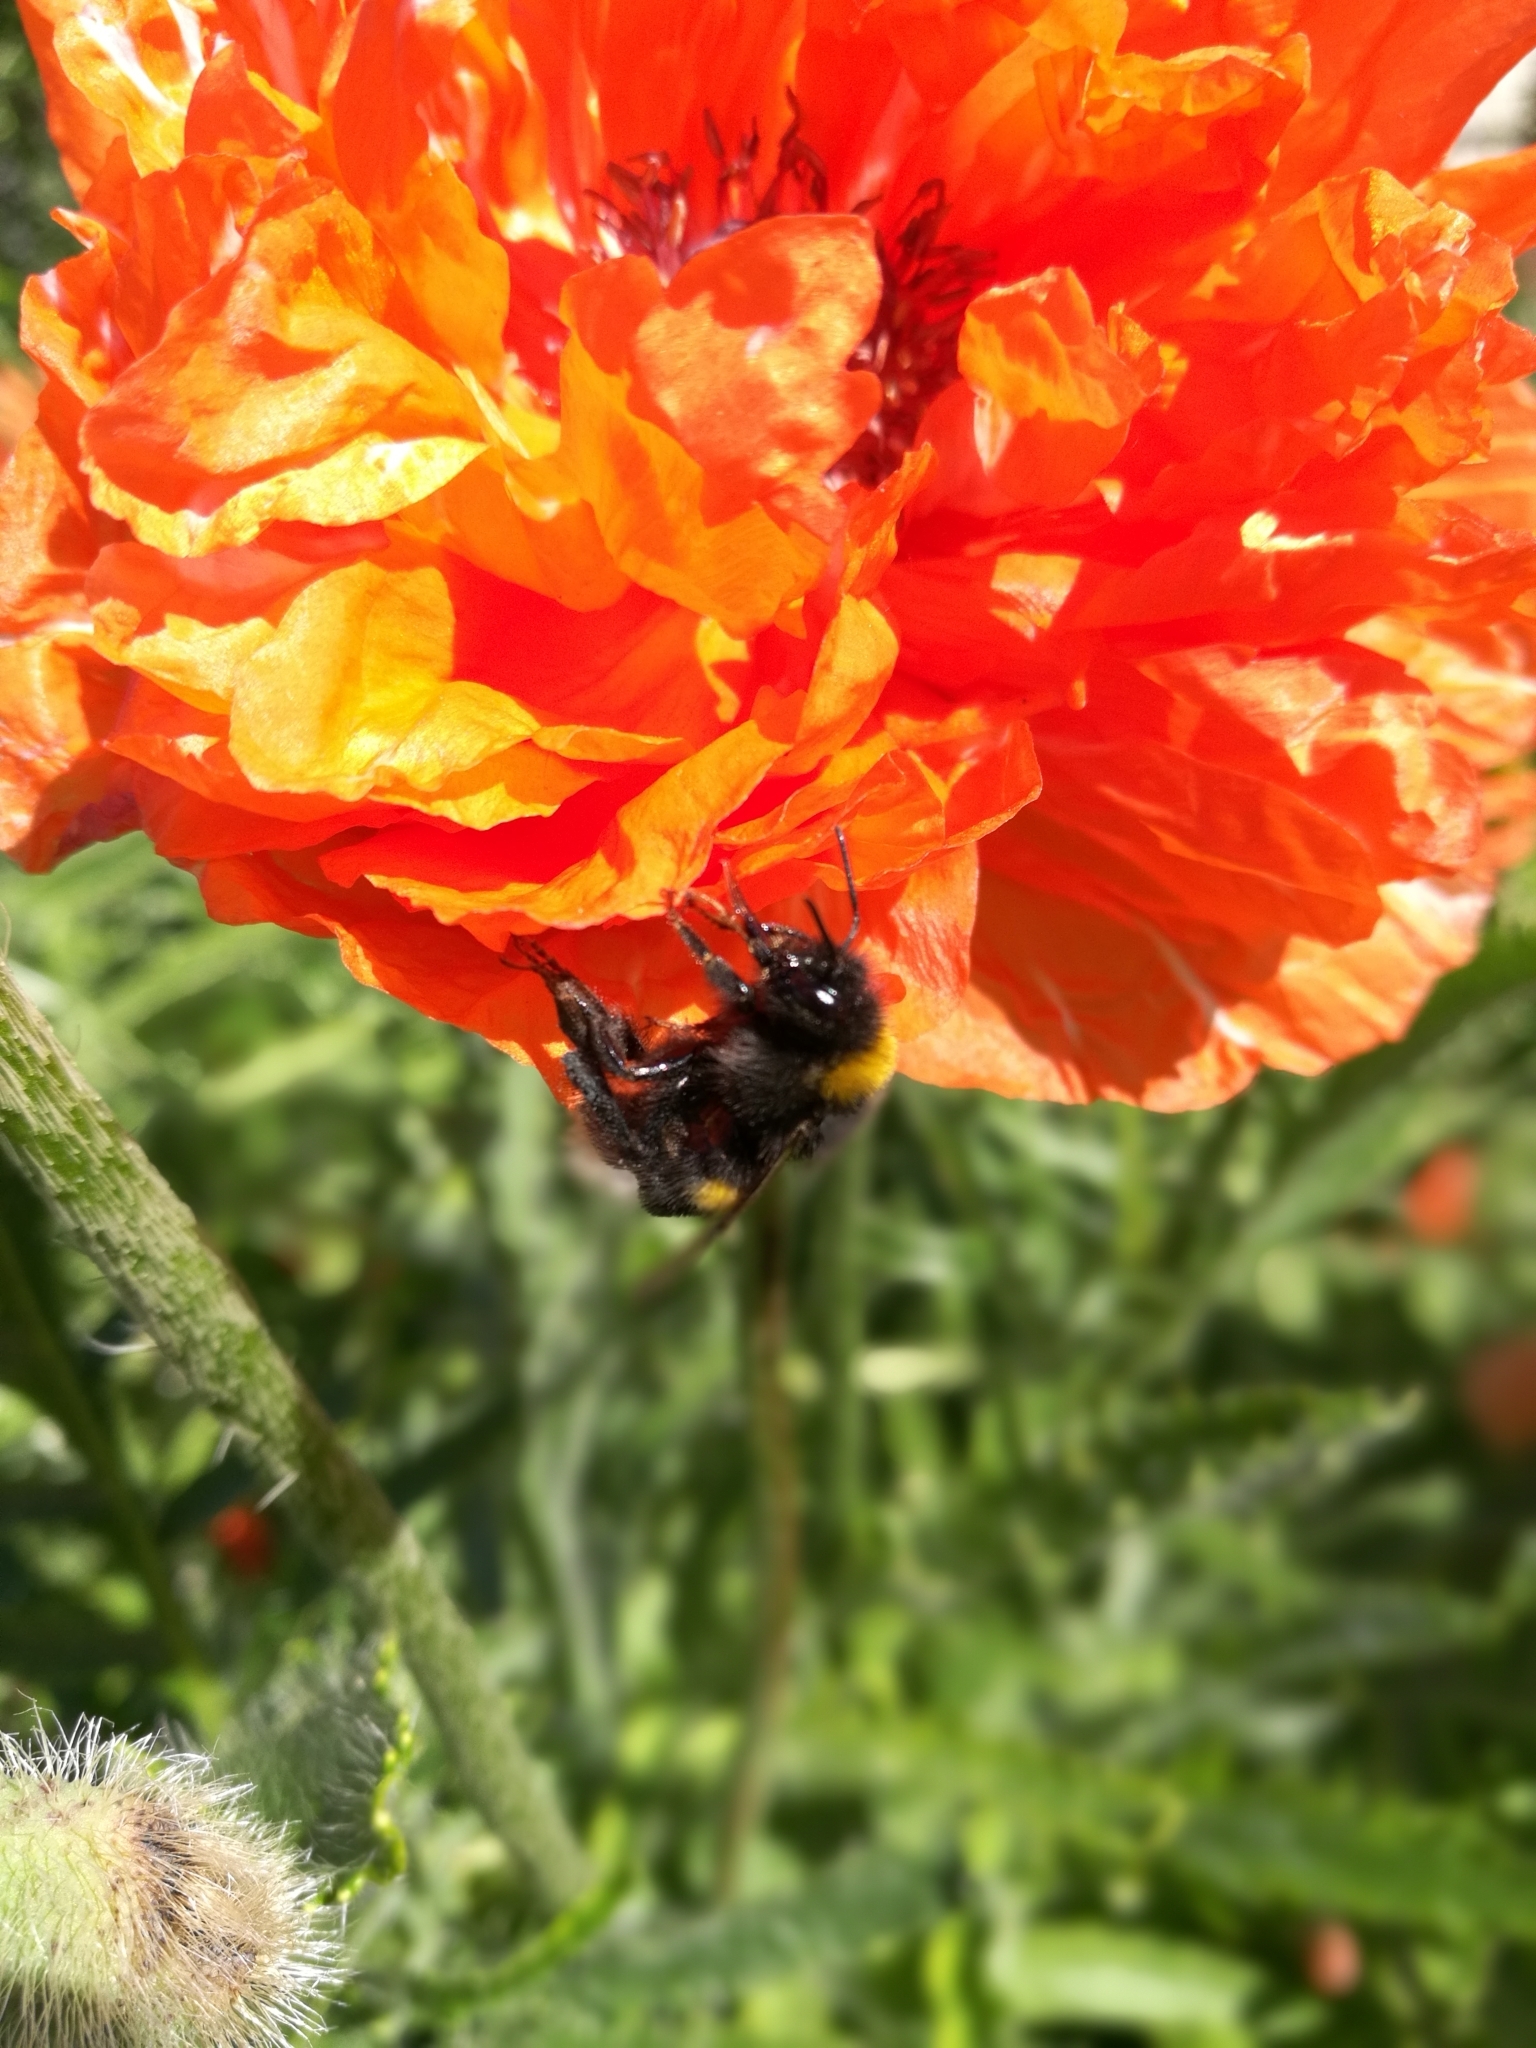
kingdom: Animalia
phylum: Arthropoda
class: Insecta
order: Hymenoptera
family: Apidae
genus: Bombus
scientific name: Bombus
